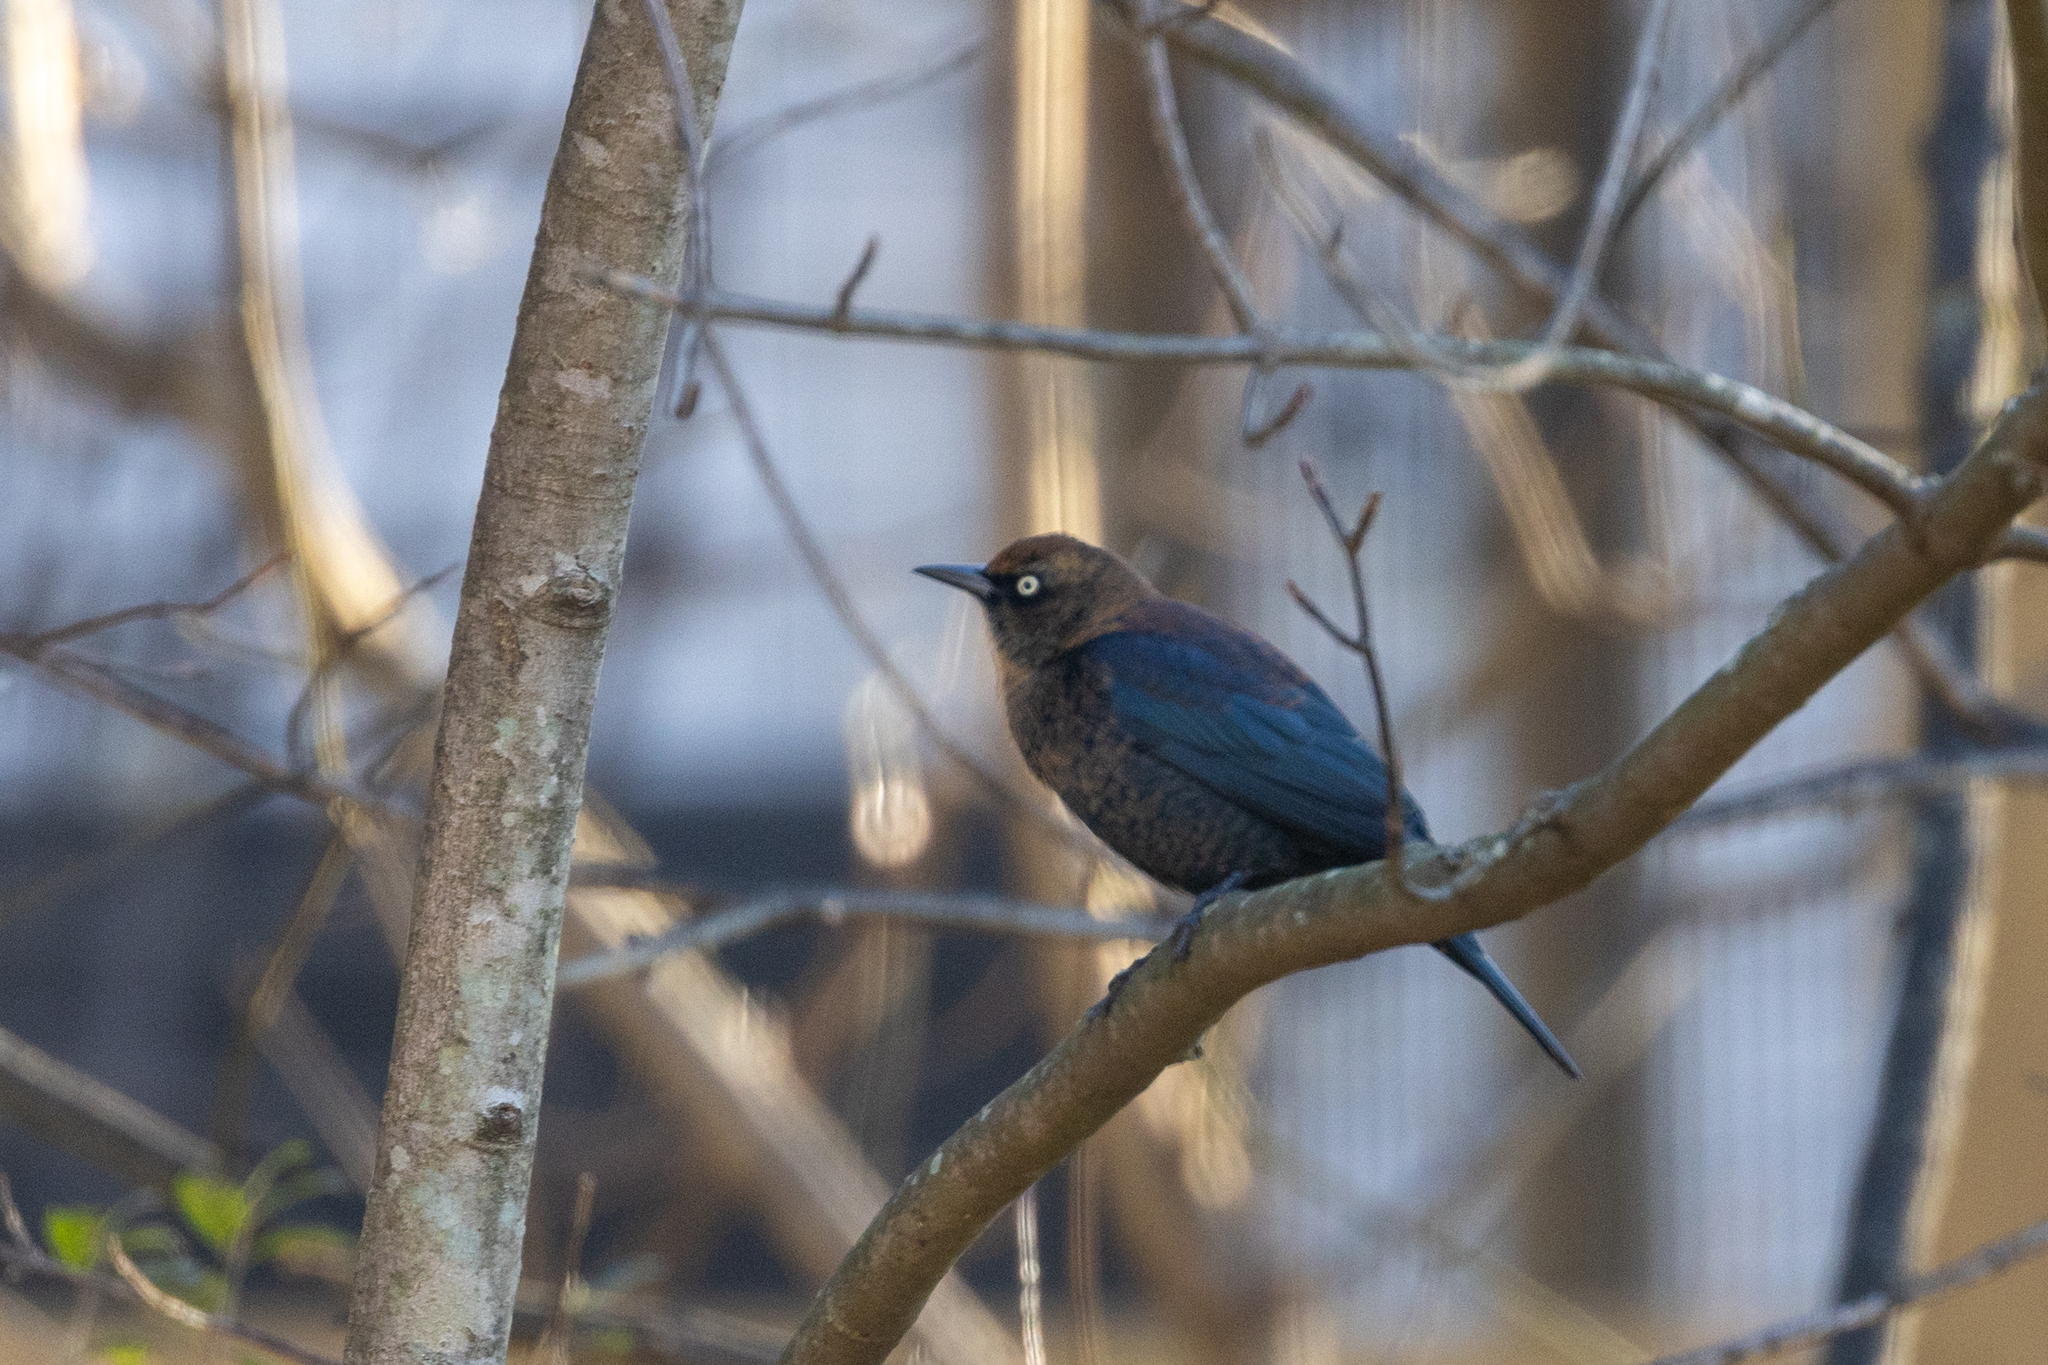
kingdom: Animalia
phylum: Chordata
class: Aves
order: Passeriformes
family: Icteridae
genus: Euphagus
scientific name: Euphagus carolinus
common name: Rusty blackbird
